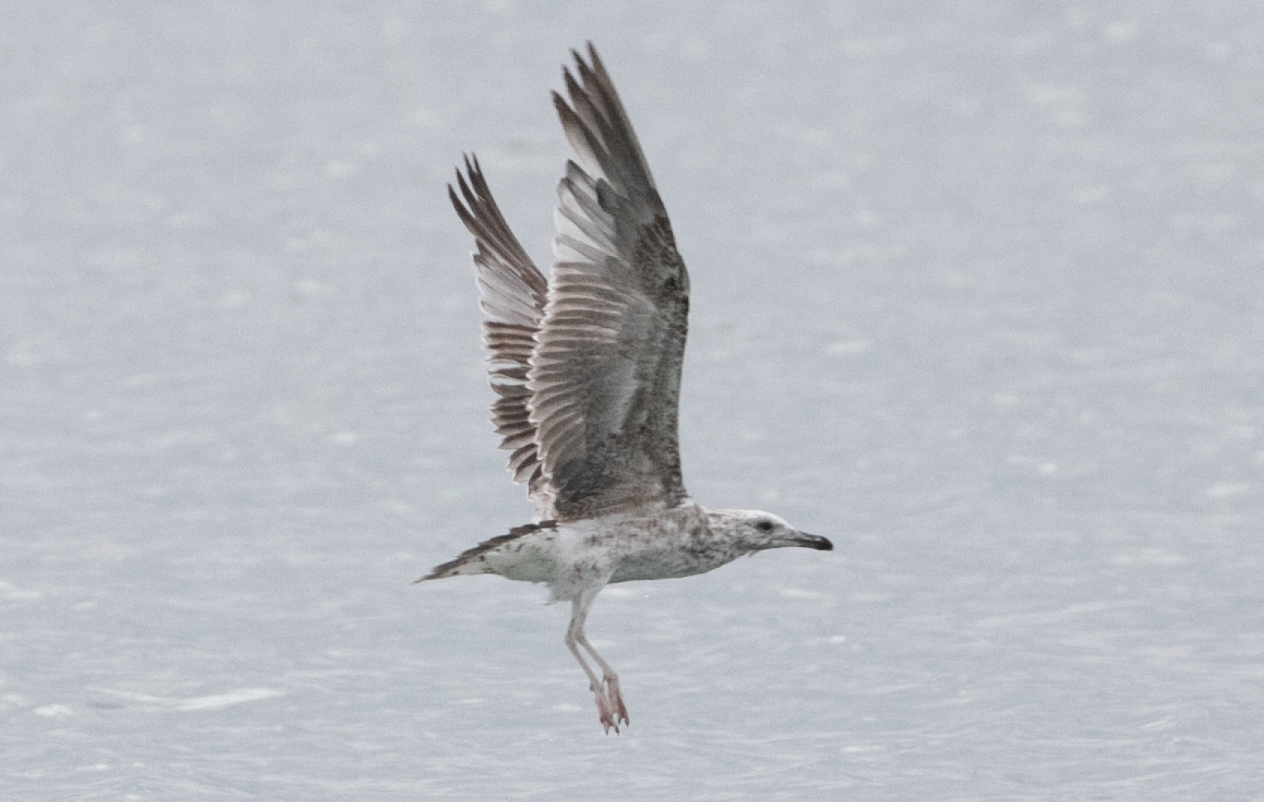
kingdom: Animalia
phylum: Chordata
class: Aves
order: Charadriiformes
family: Laridae
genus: Larus
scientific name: Larus michahellis
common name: Yellow-legged gull
